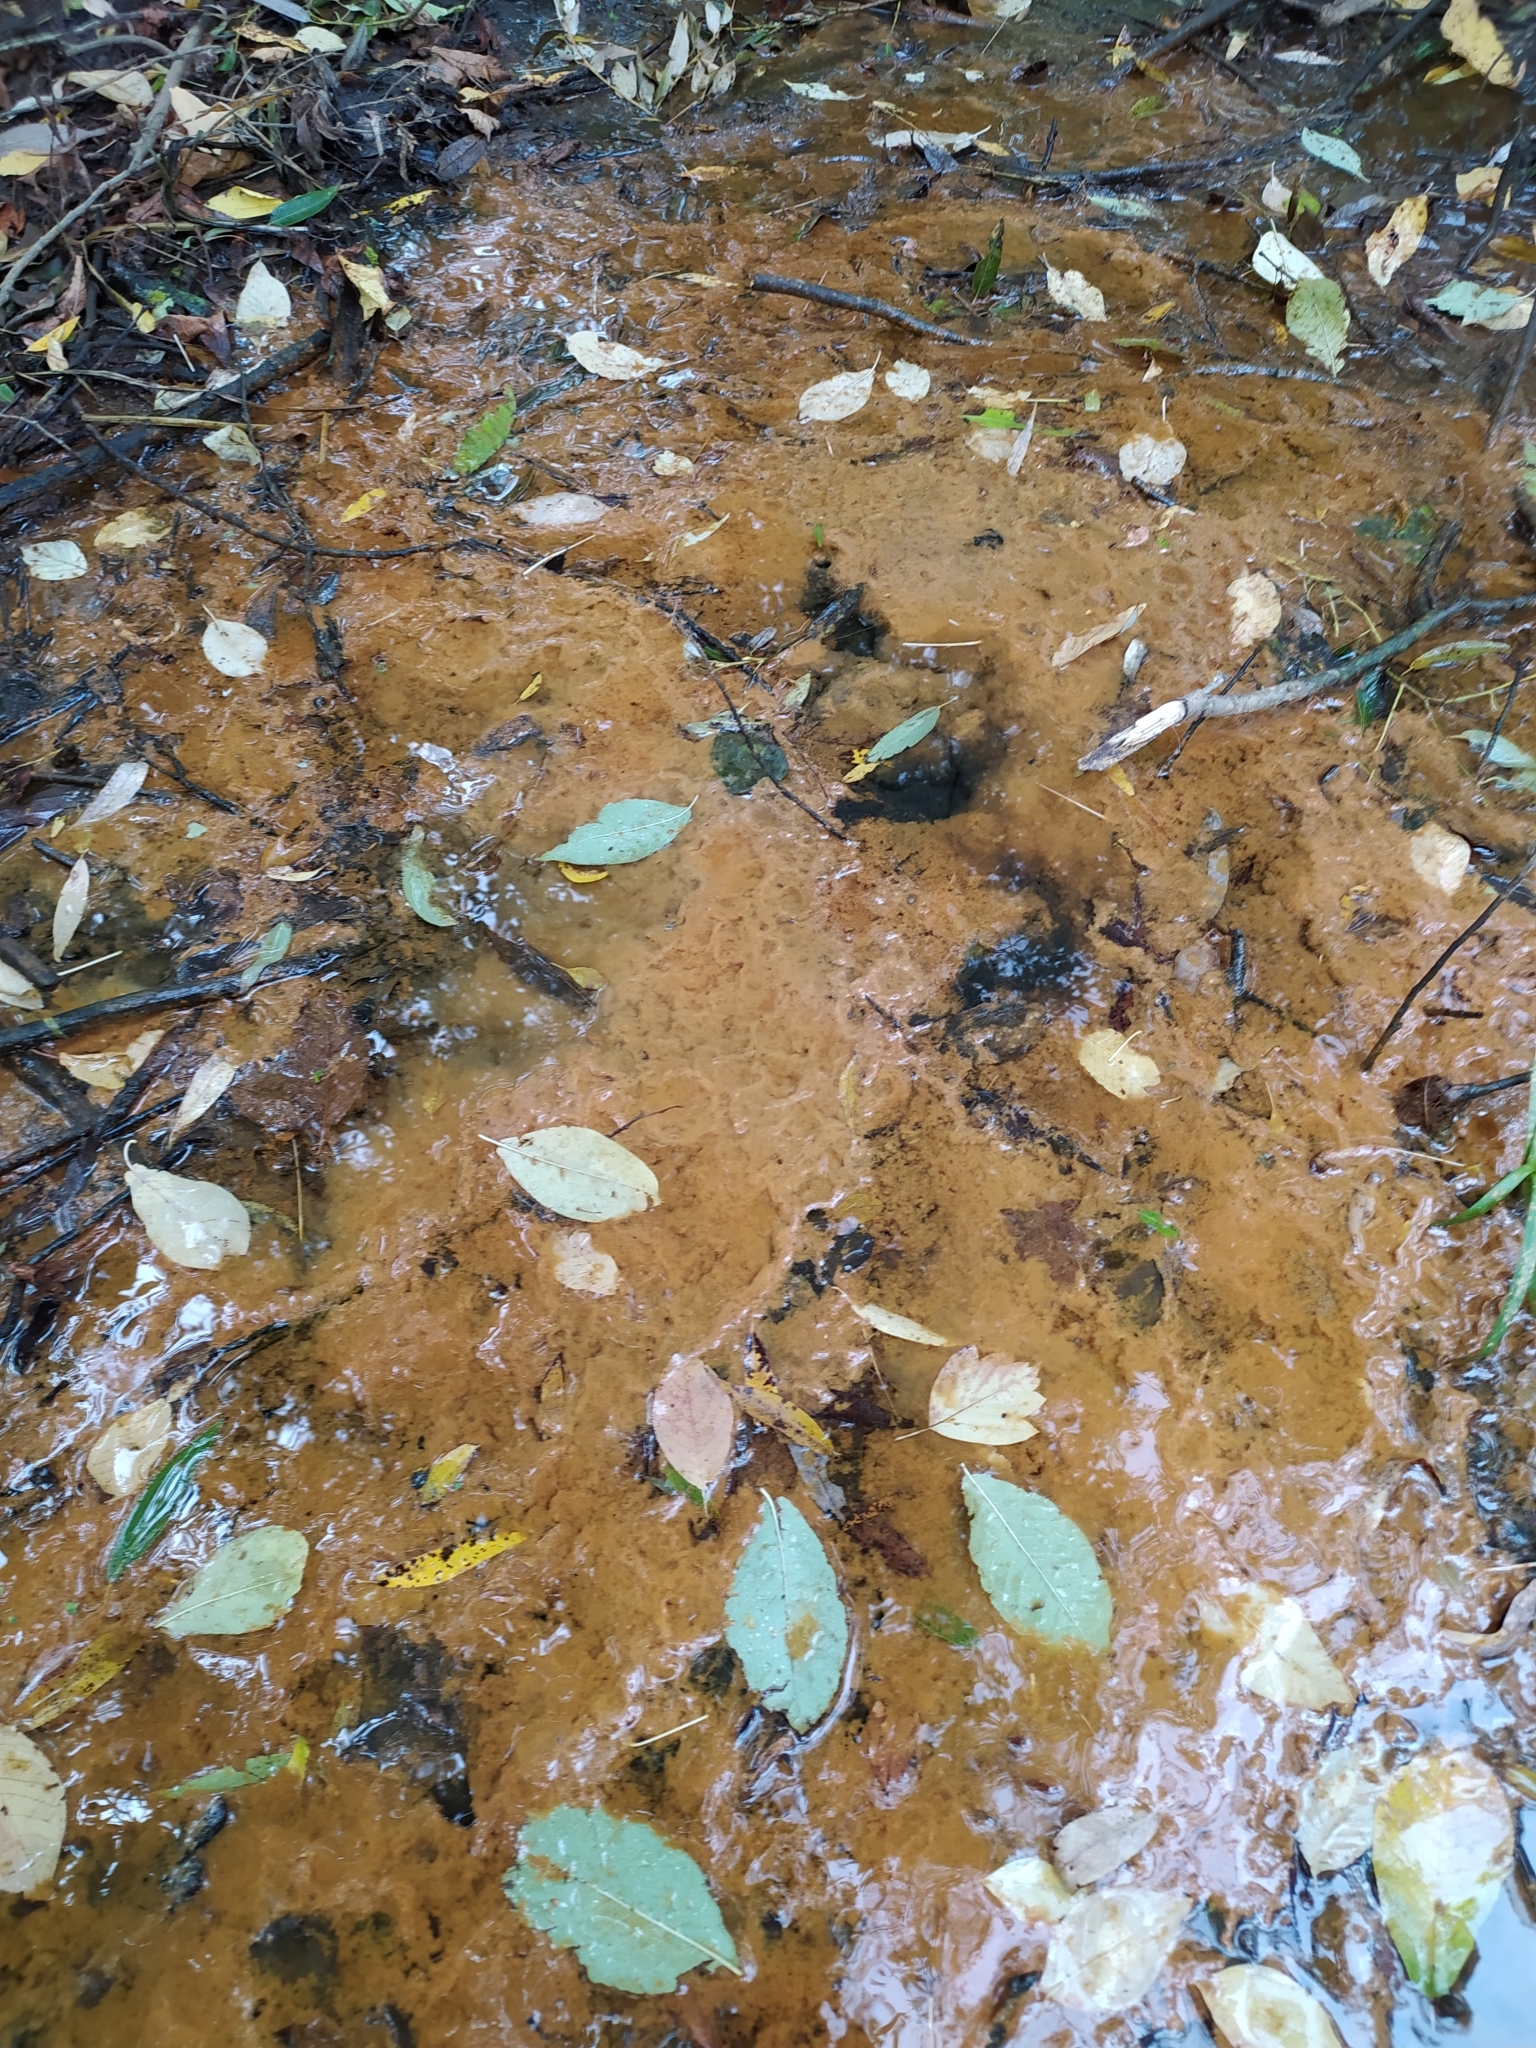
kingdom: Bacteria
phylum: Proteobacteria
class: Gammaproteobacteria
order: Burkholderiales
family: Burkholderiaceae
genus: Leptothrix
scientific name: Leptothrix
